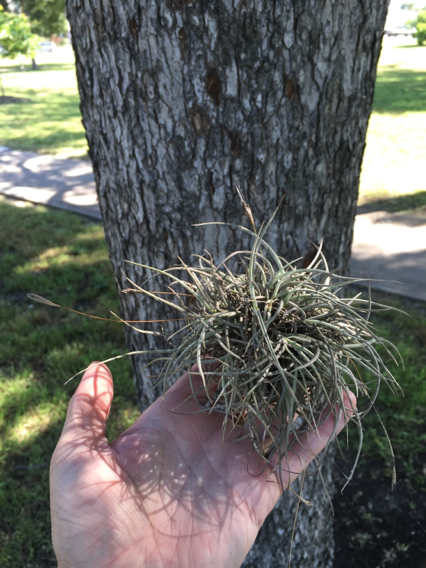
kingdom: Plantae
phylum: Tracheophyta
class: Liliopsida
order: Poales
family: Bromeliaceae
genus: Tillandsia
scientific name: Tillandsia recurvata
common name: Small ballmoss
